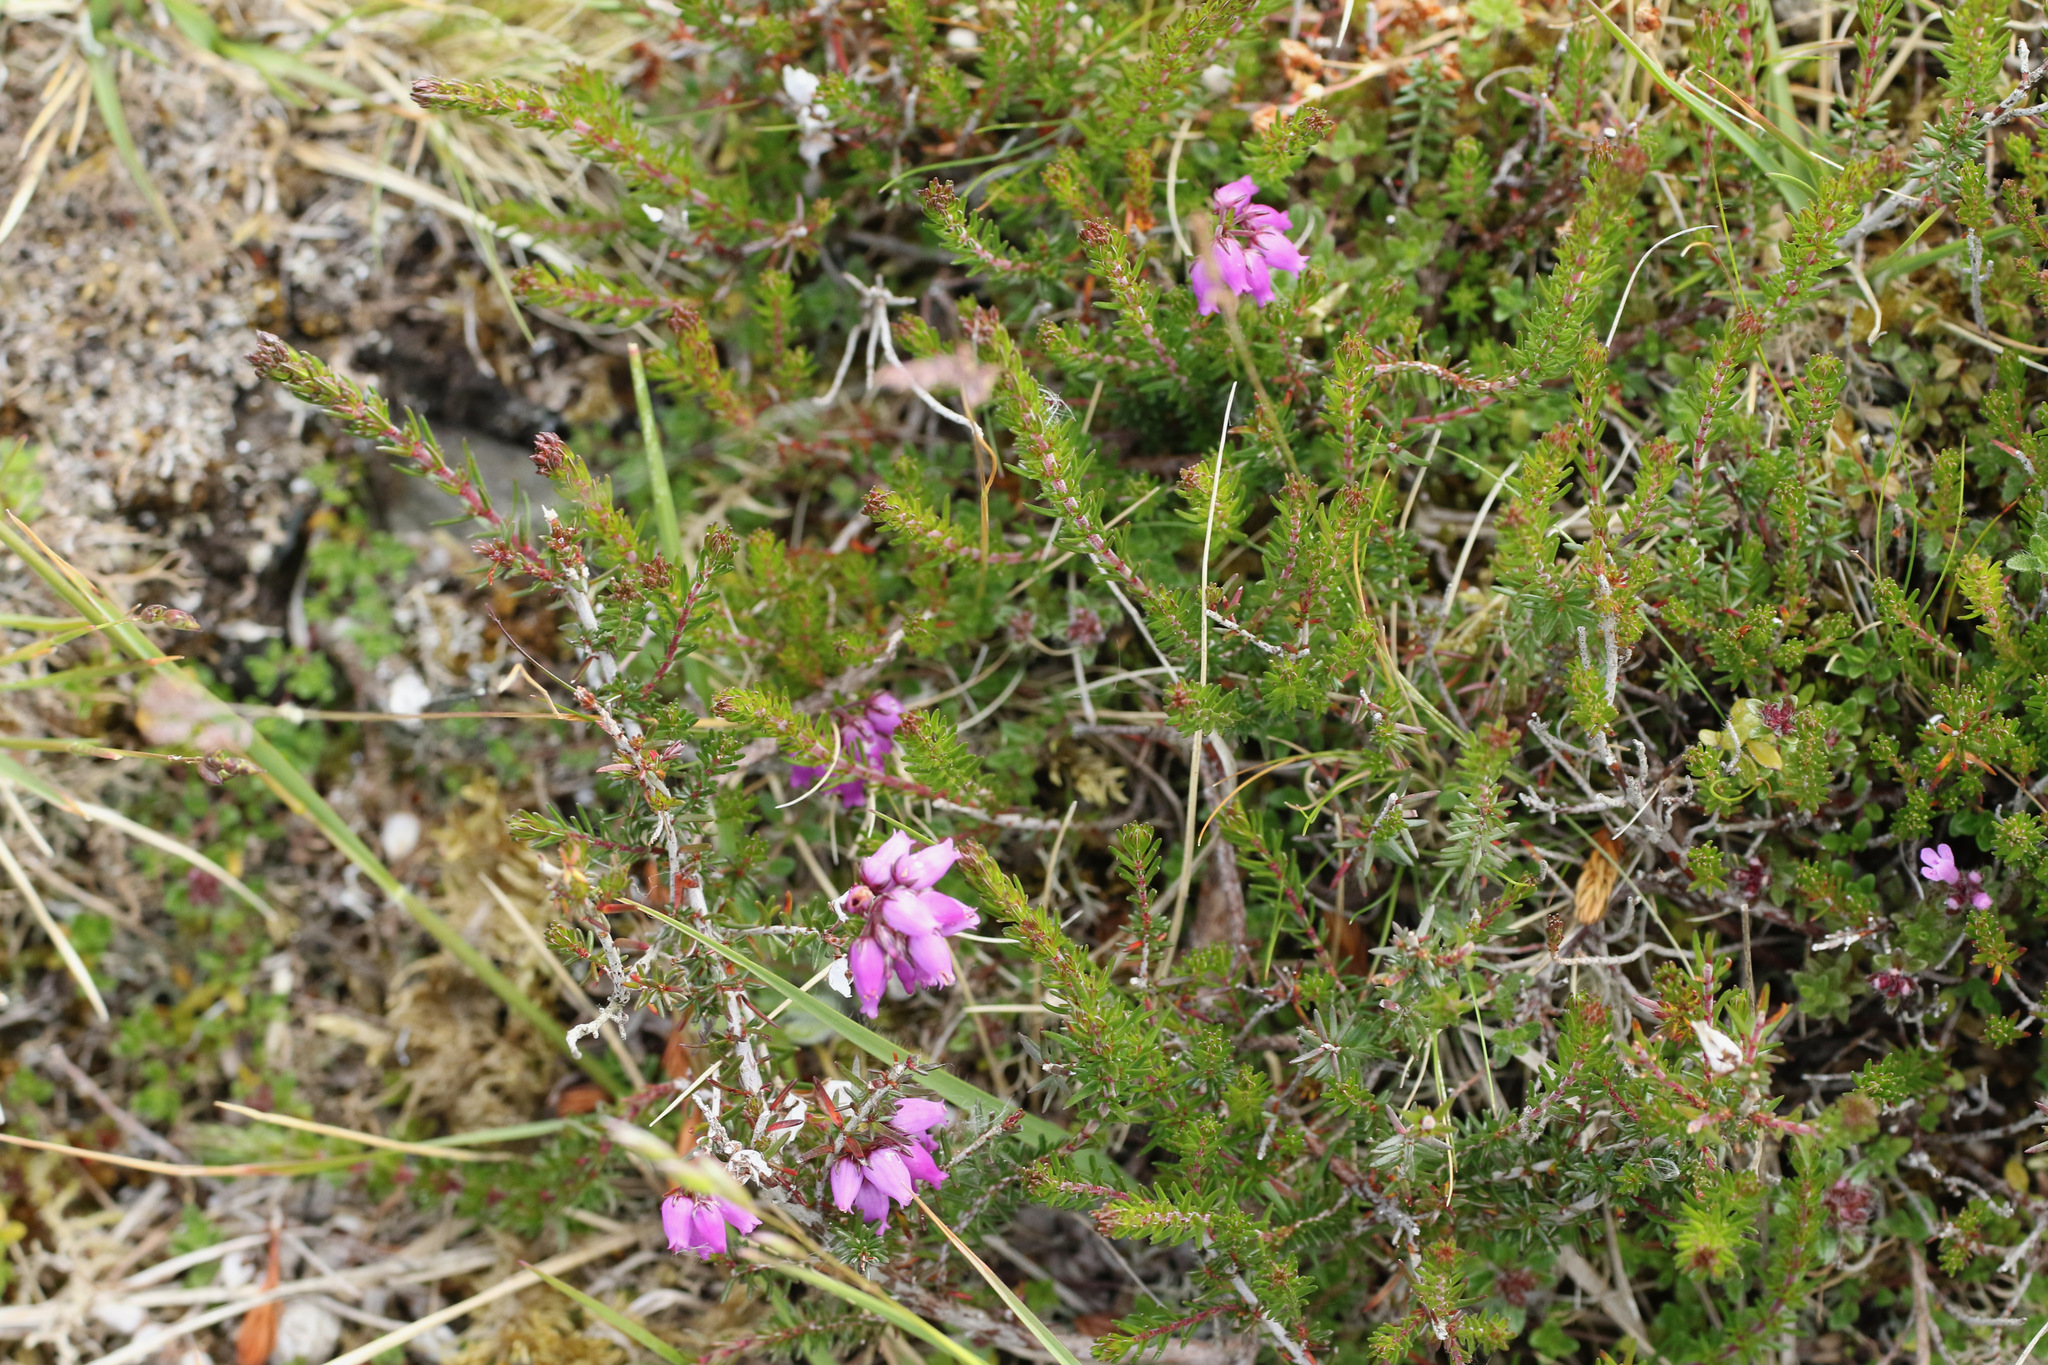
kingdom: Plantae
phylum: Tracheophyta
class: Magnoliopsida
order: Ericales
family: Ericaceae
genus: Erica
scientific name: Erica cinerea
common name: Bell heather
